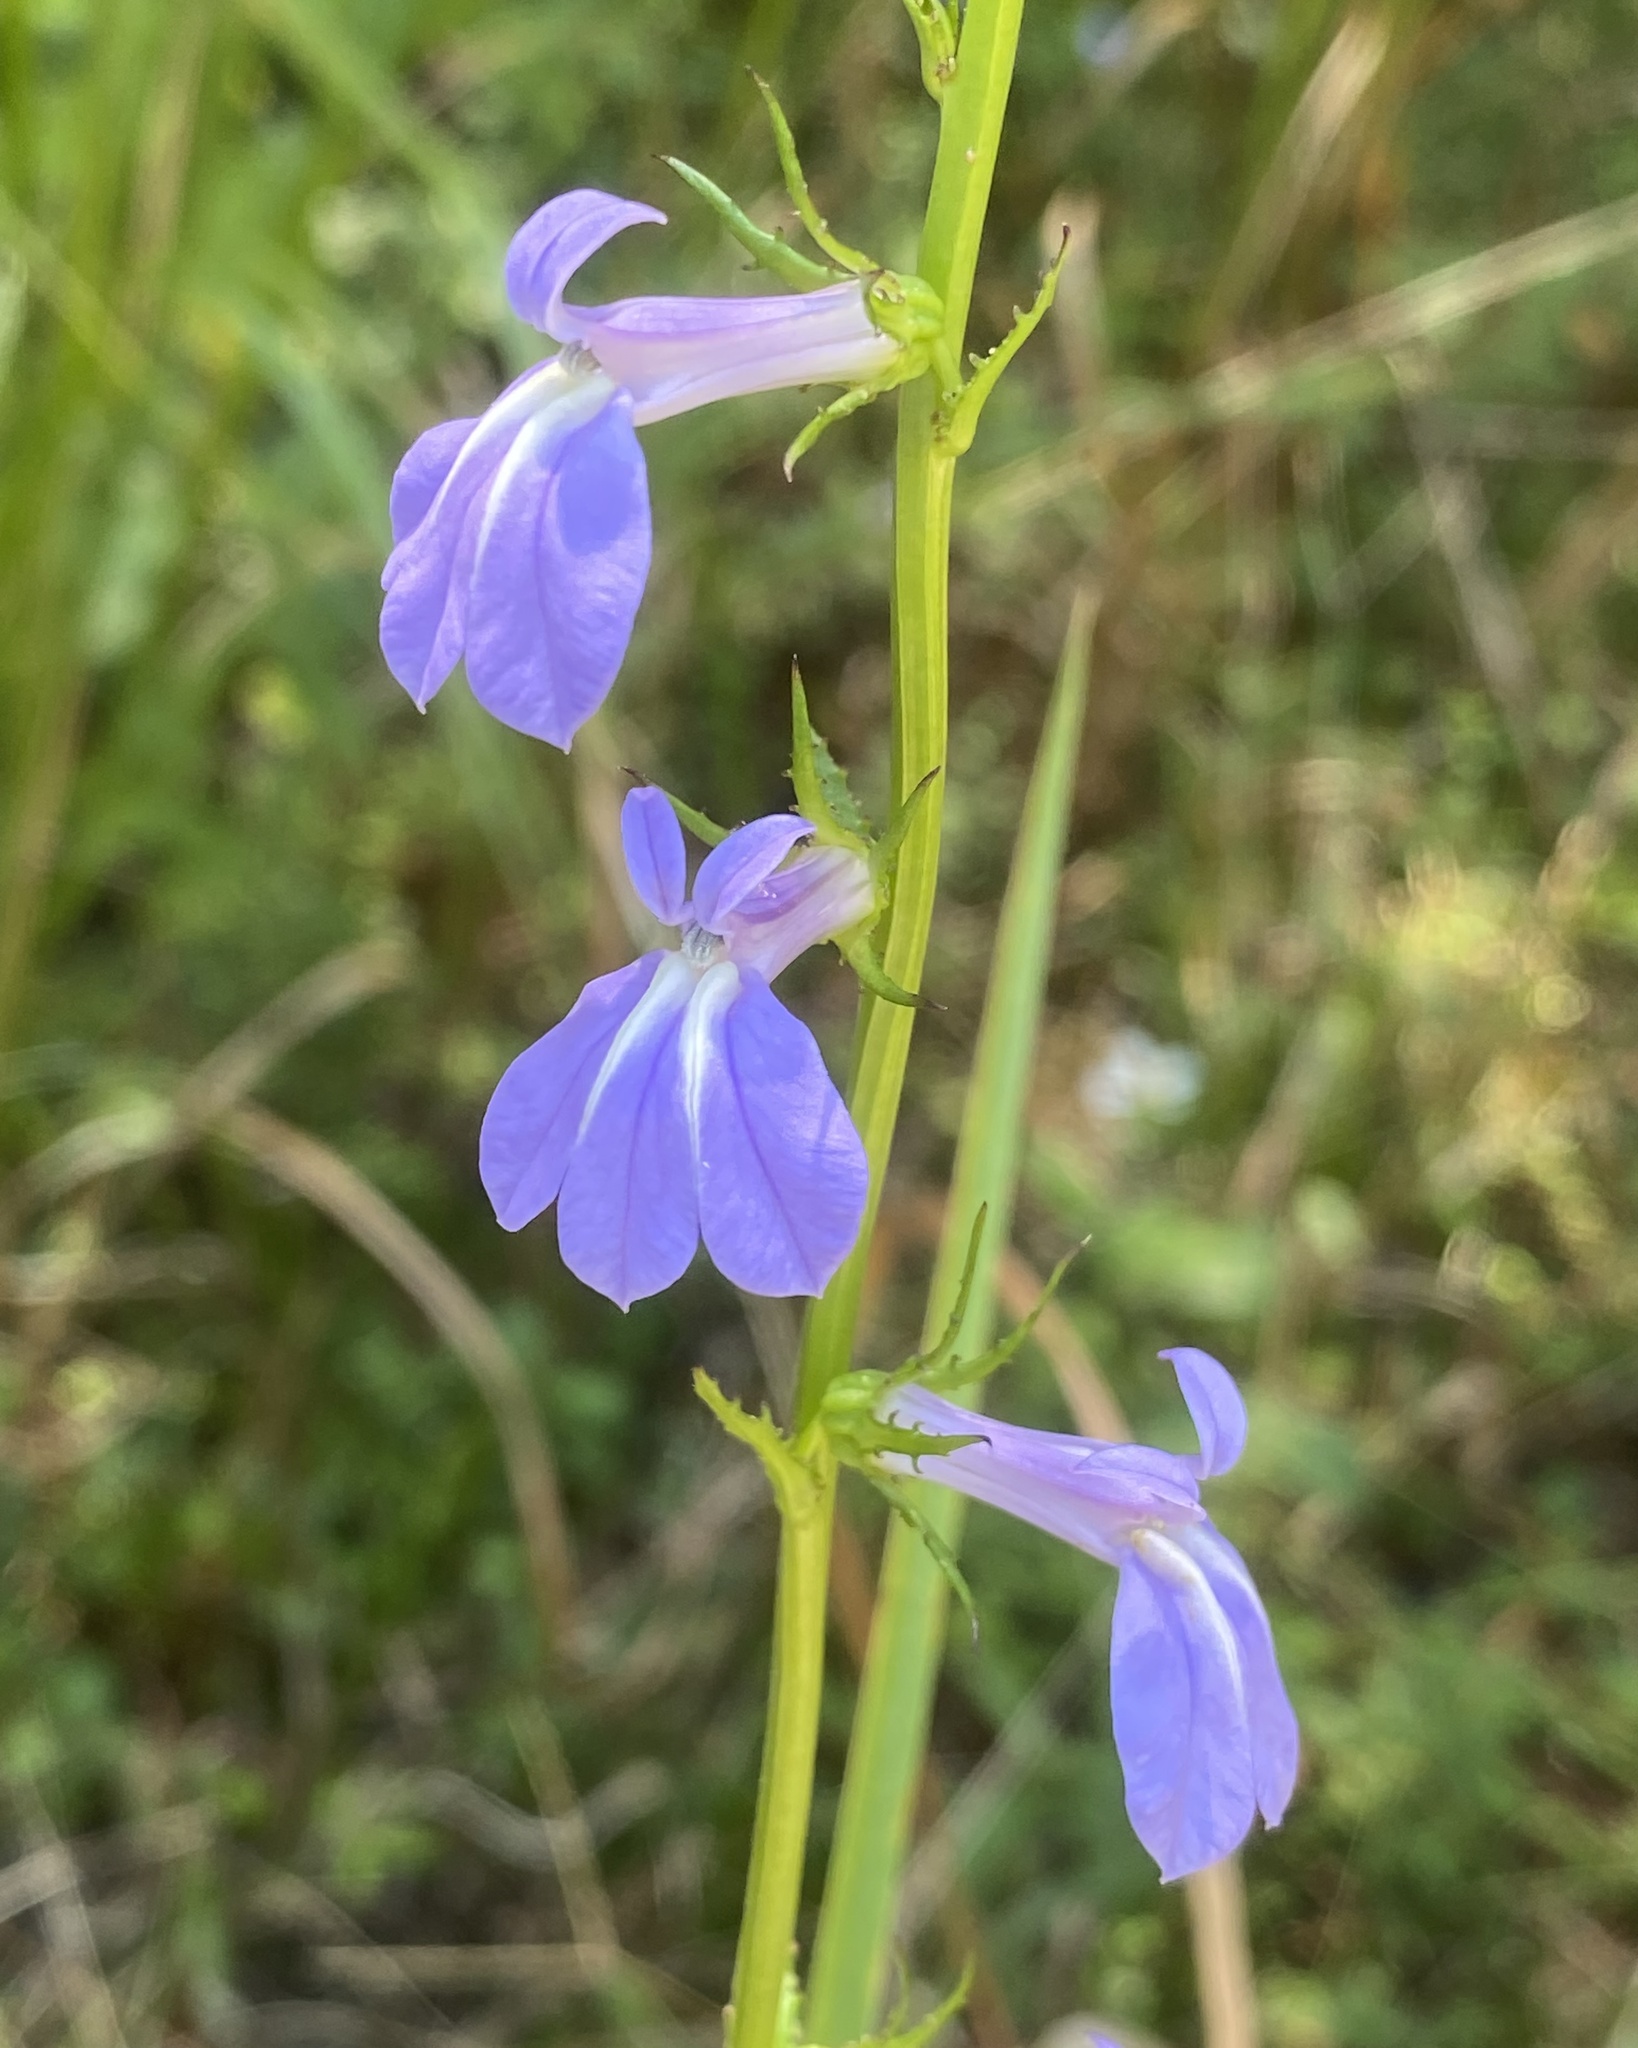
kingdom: Plantae
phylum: Tracheophyta
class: Magnoliopsida
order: Asterales
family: Campanulaceae
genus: Lobelia
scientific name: Lobelia glandulosa
